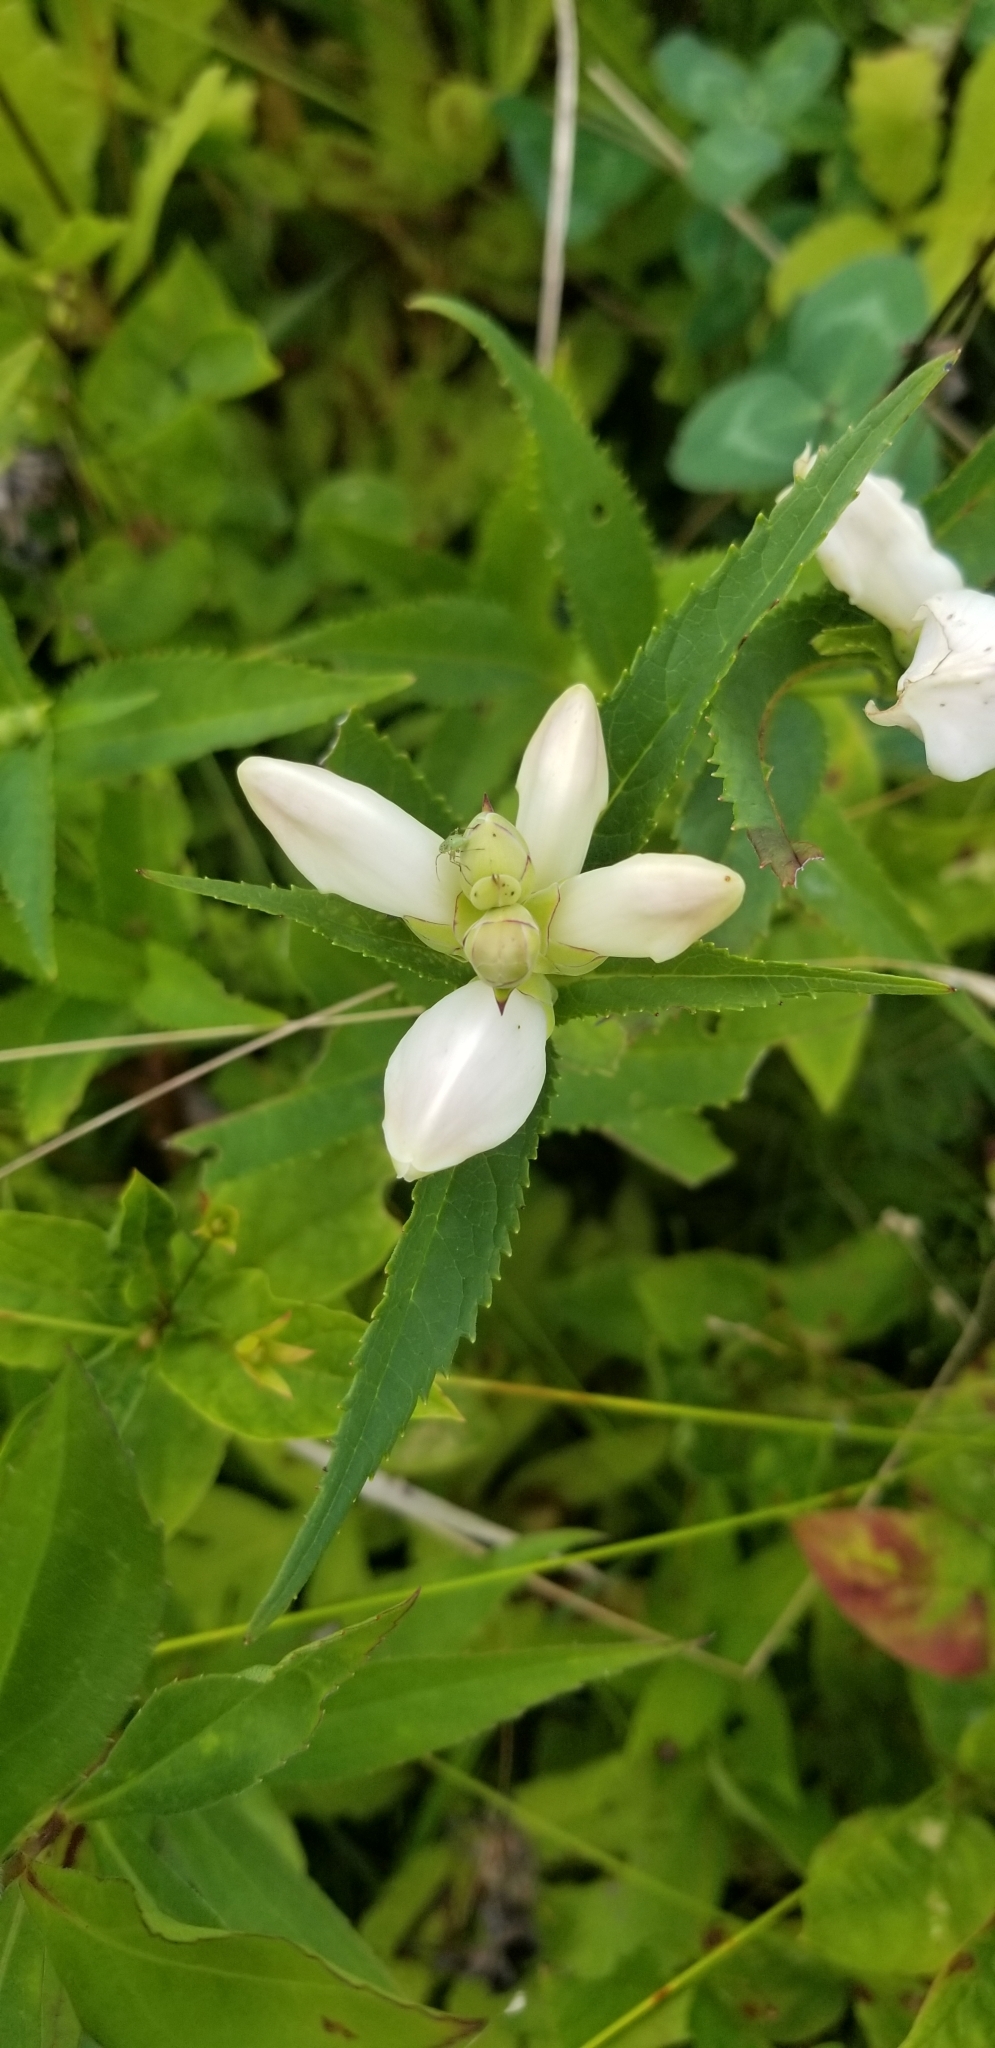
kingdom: Plantae
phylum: Tracheophyta
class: Magnoliopsida
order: Lamiales
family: Plantaginaceae
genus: Chelone
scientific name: Chelone glabra
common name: Snakehead
